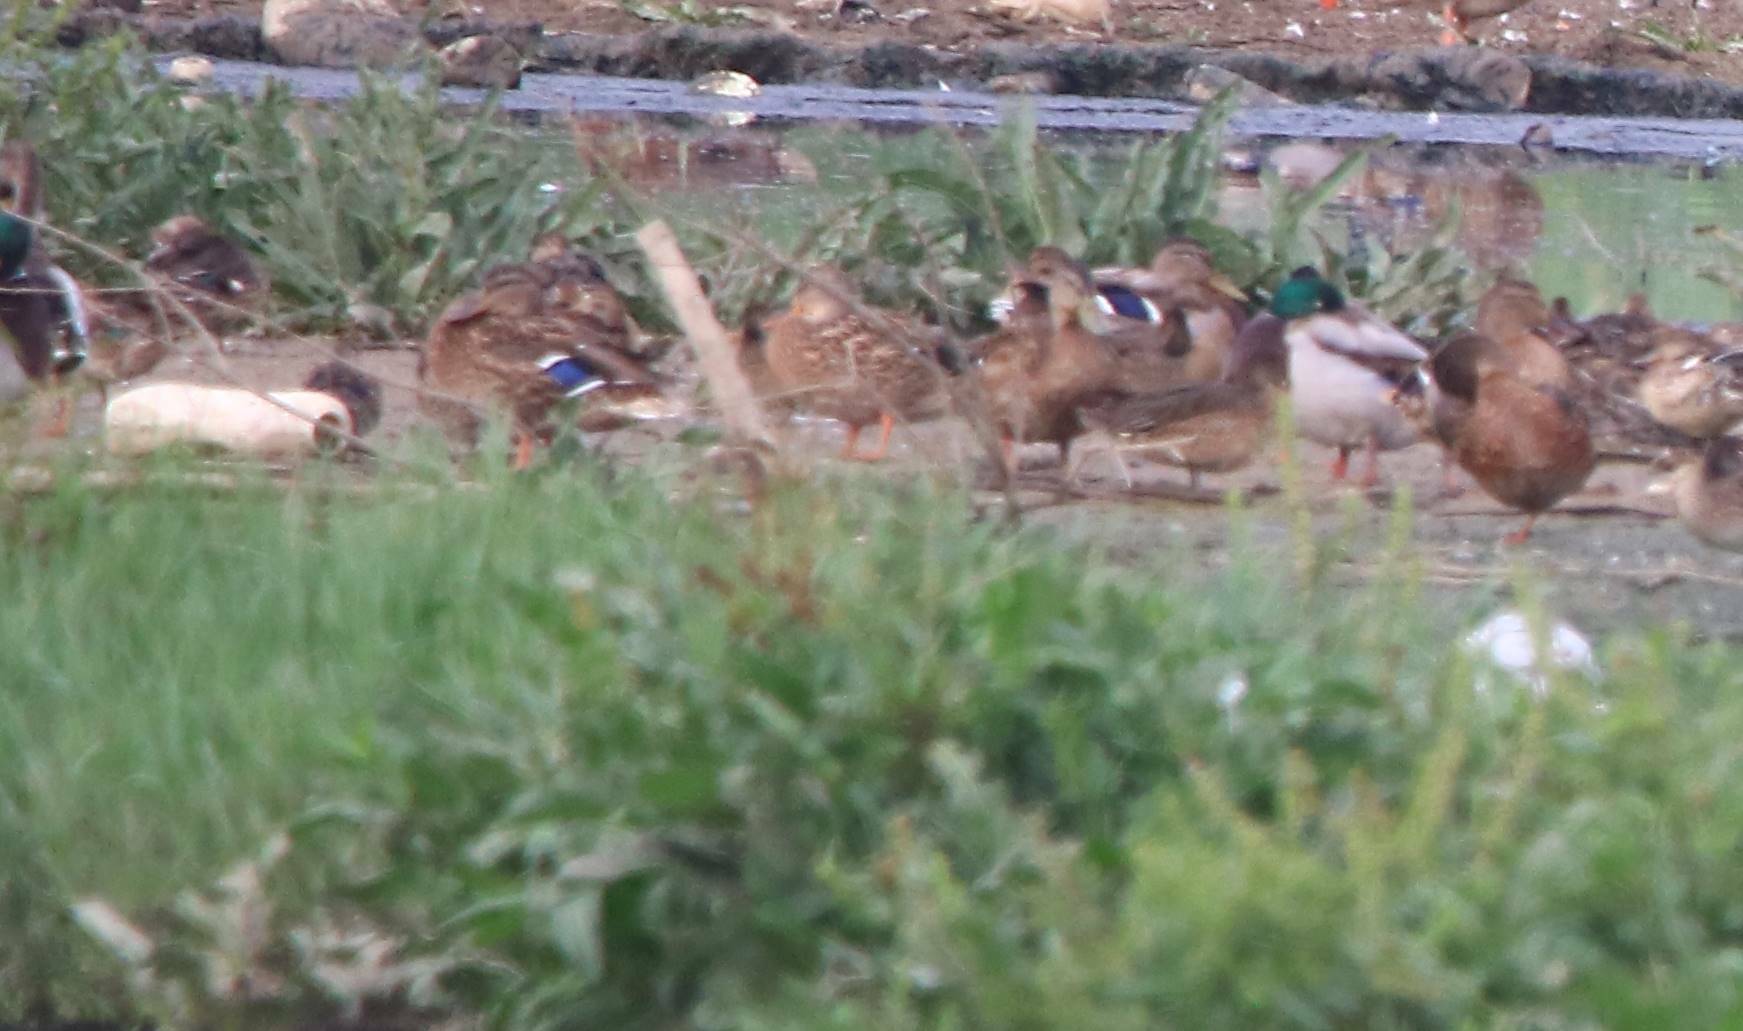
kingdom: Animalia
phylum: Chordata
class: Aves
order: Anseriformes
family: Anatidae
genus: Anas
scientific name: Anas platyrhynchos
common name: Mallard
